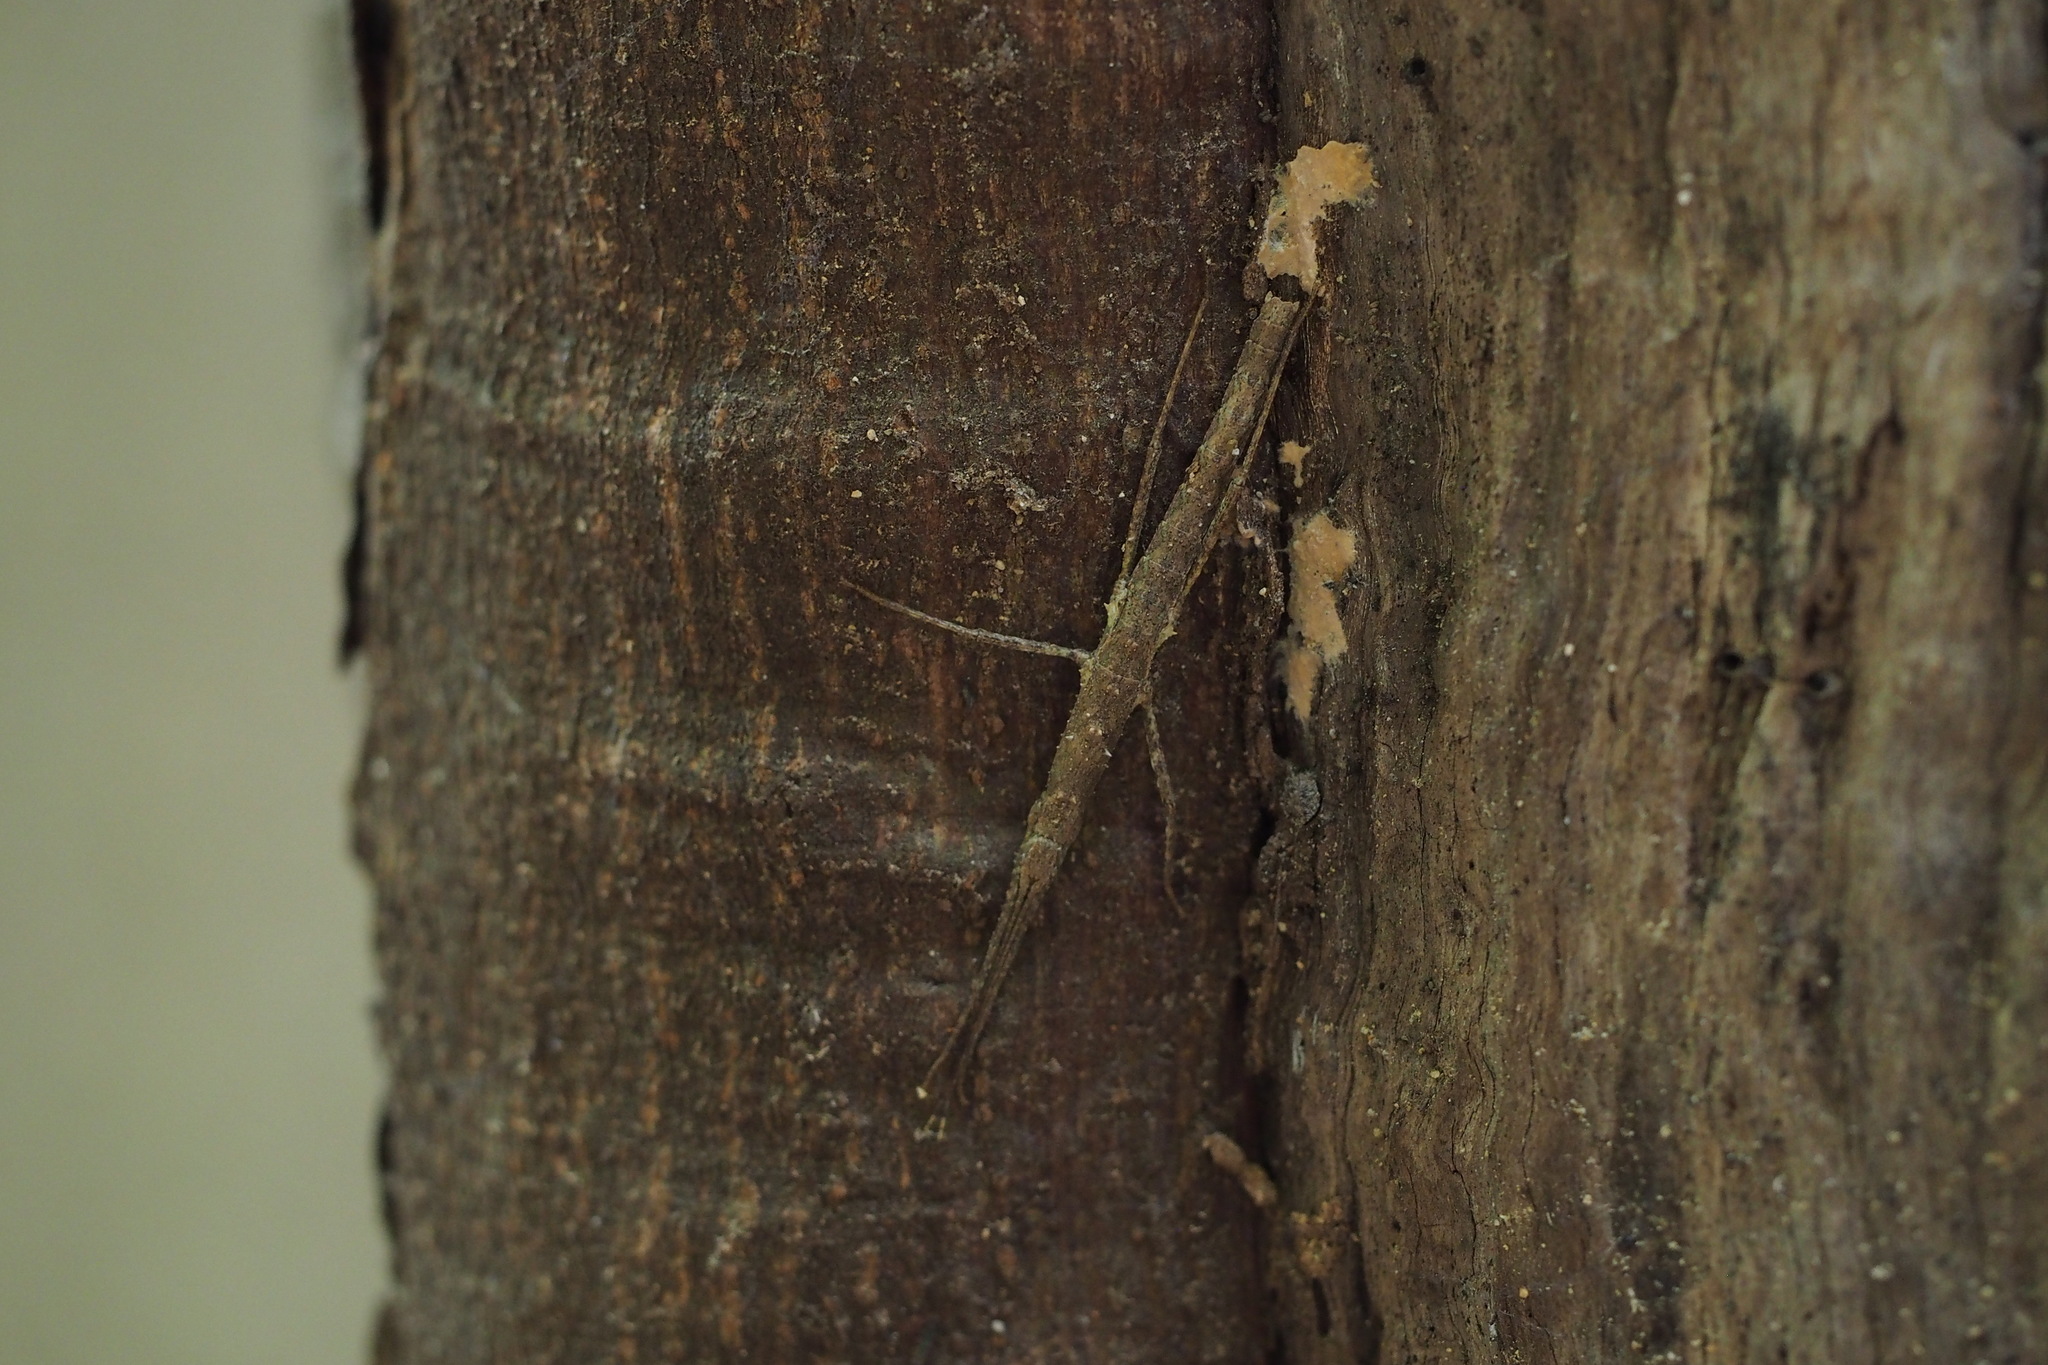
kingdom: Animalia
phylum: Arthropoda
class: Insecta
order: Phasmida
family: Lonchodidae
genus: Neohirasea
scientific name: Neohirasea japonica
